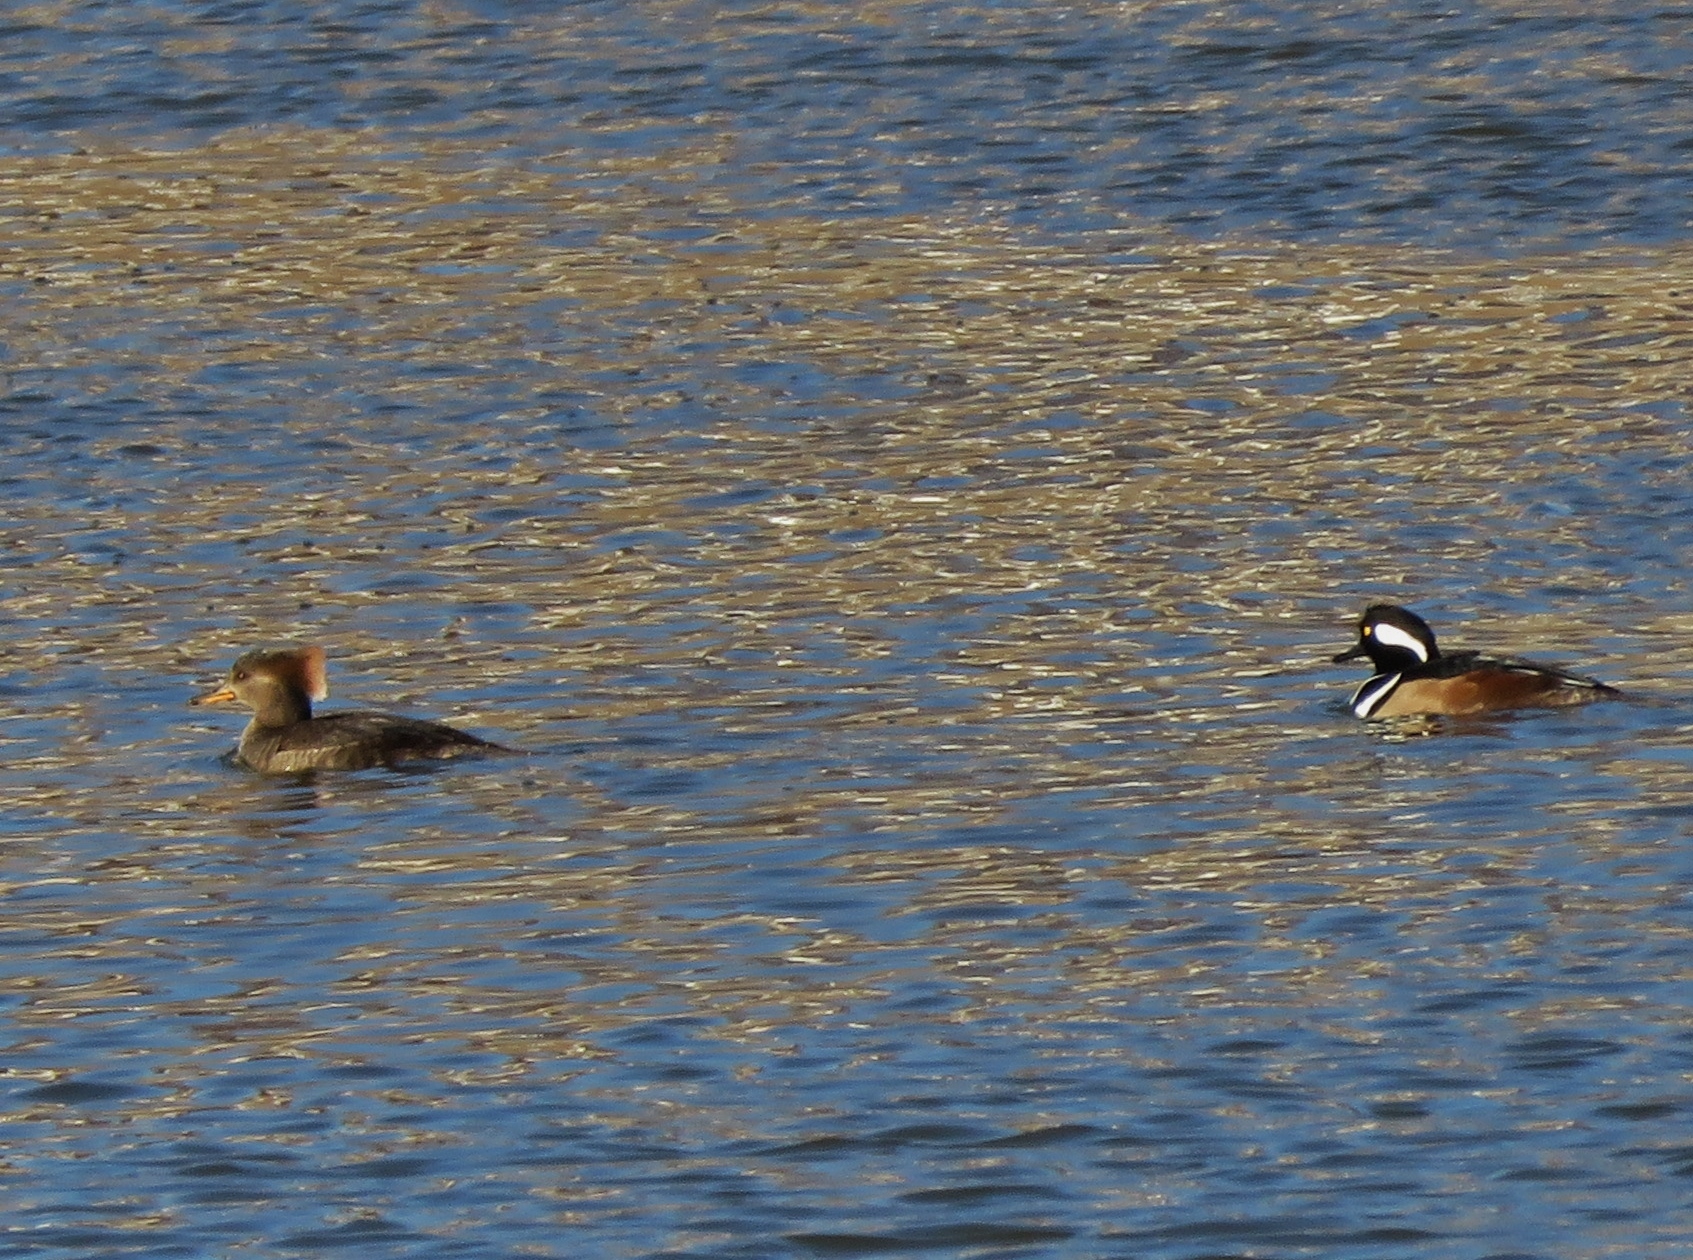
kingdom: Animalia
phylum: Chordata
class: Aves
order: Anseriformes
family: Anatidae
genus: Lophodytes
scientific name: Lophodytes cucullatus
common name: Hooded merganser
